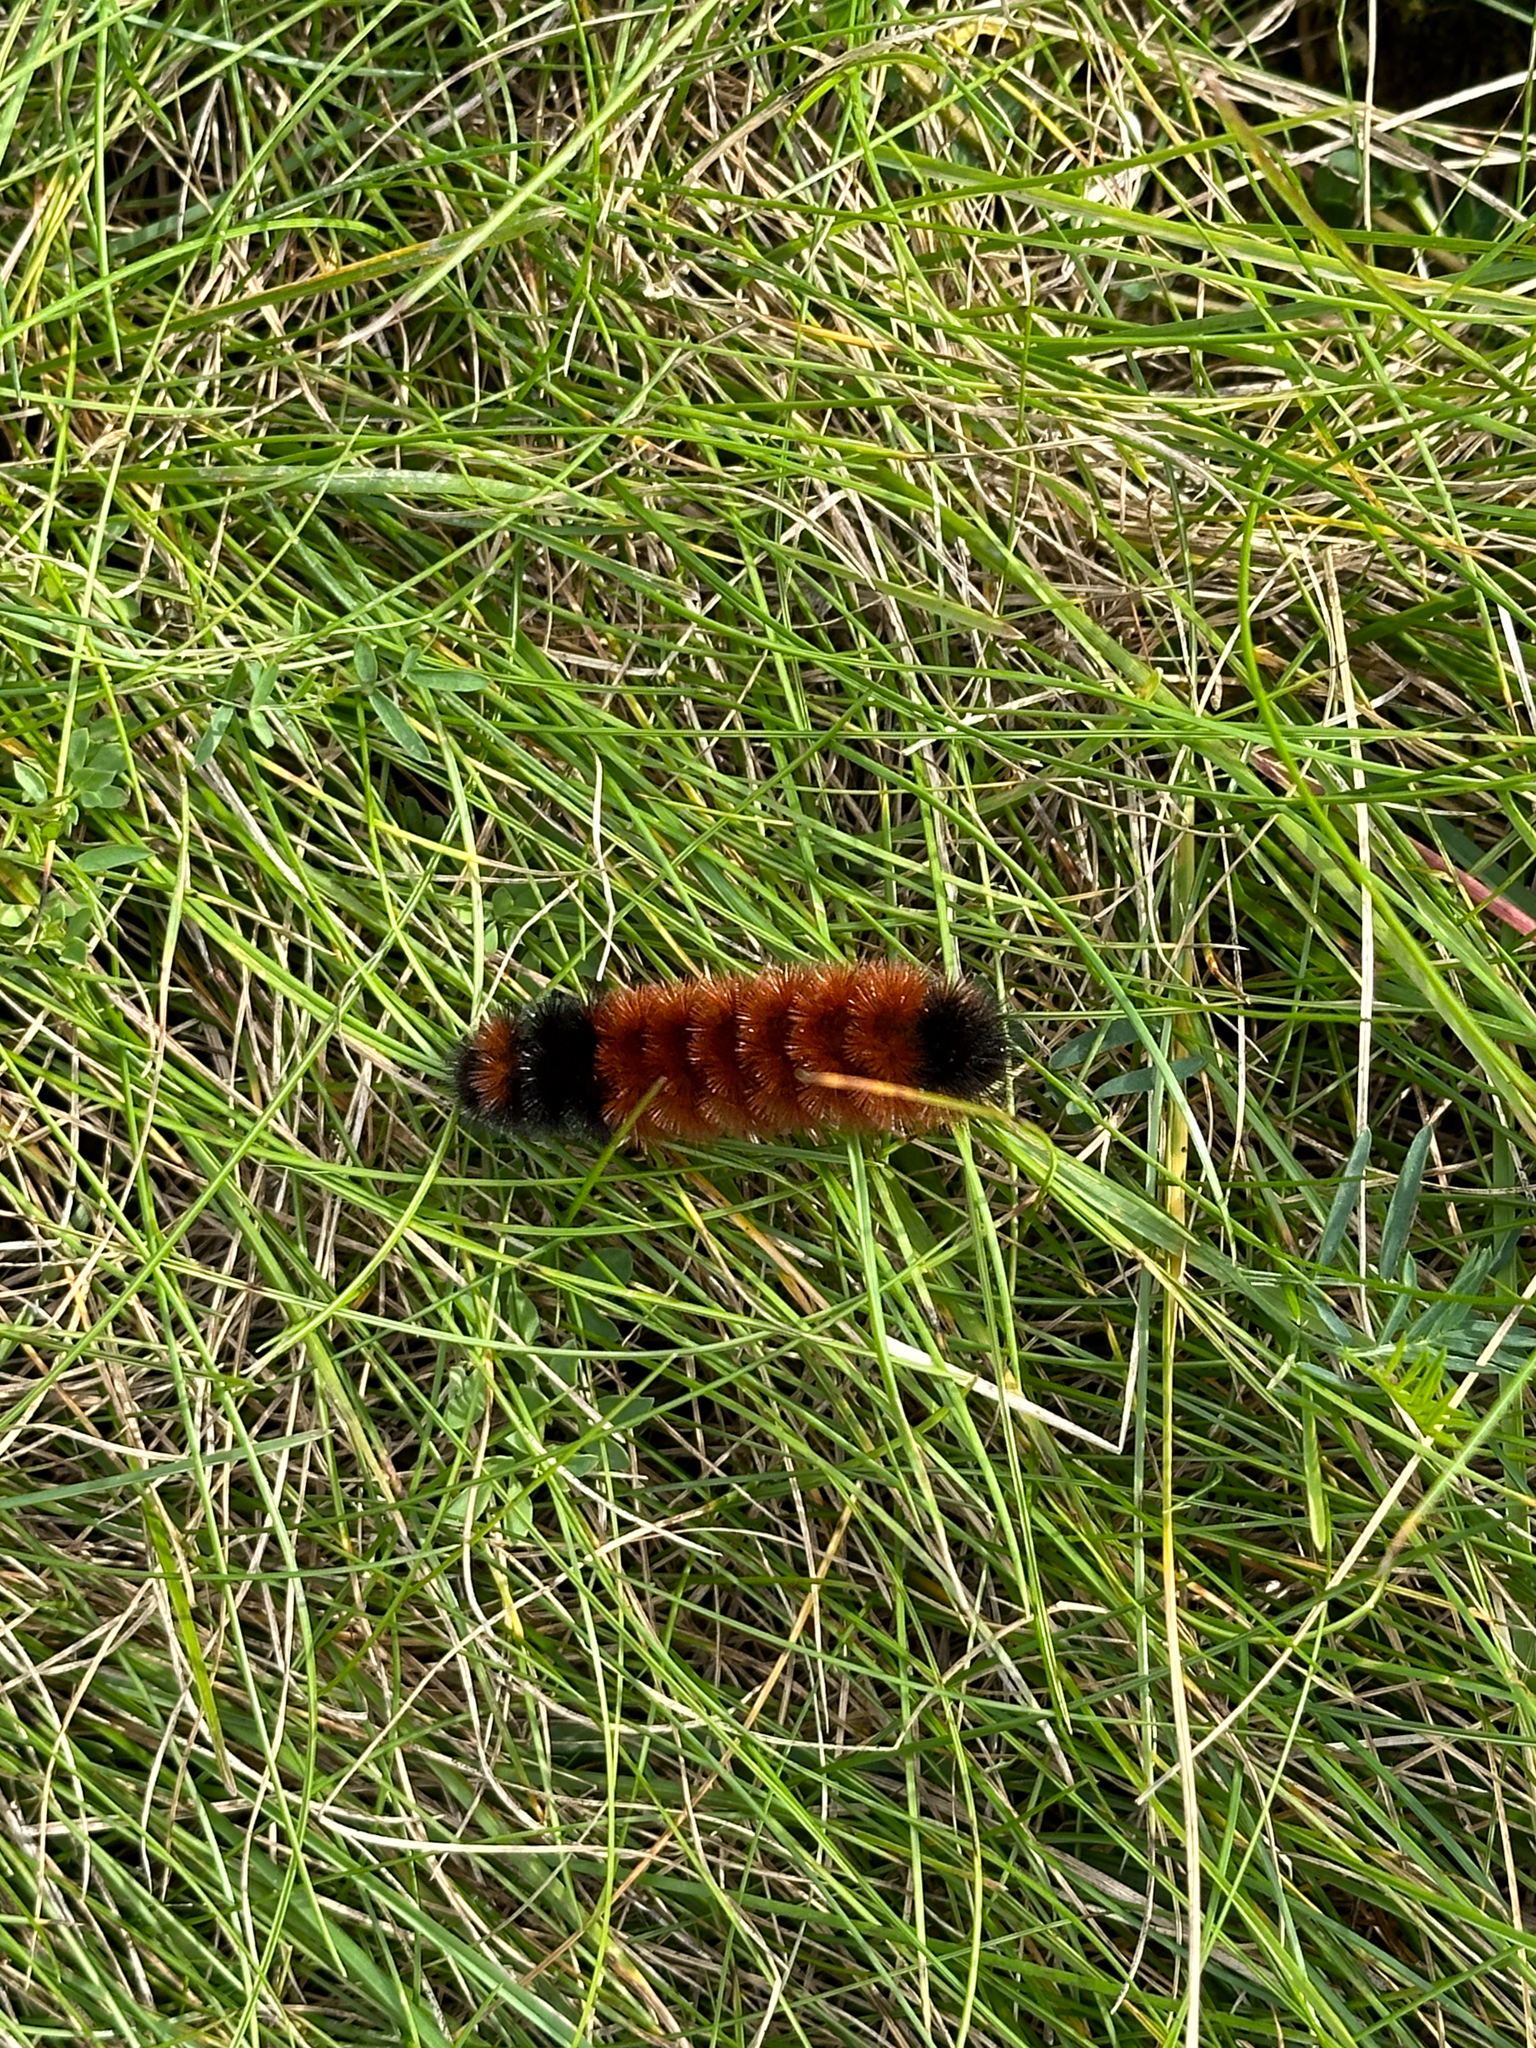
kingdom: Animalia
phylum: Arthropoda
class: Insecta
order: Lepidoptera
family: Erebidae
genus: Pyrrharctia
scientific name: Pyrrharctia isabella
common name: Isabella tiger moth
